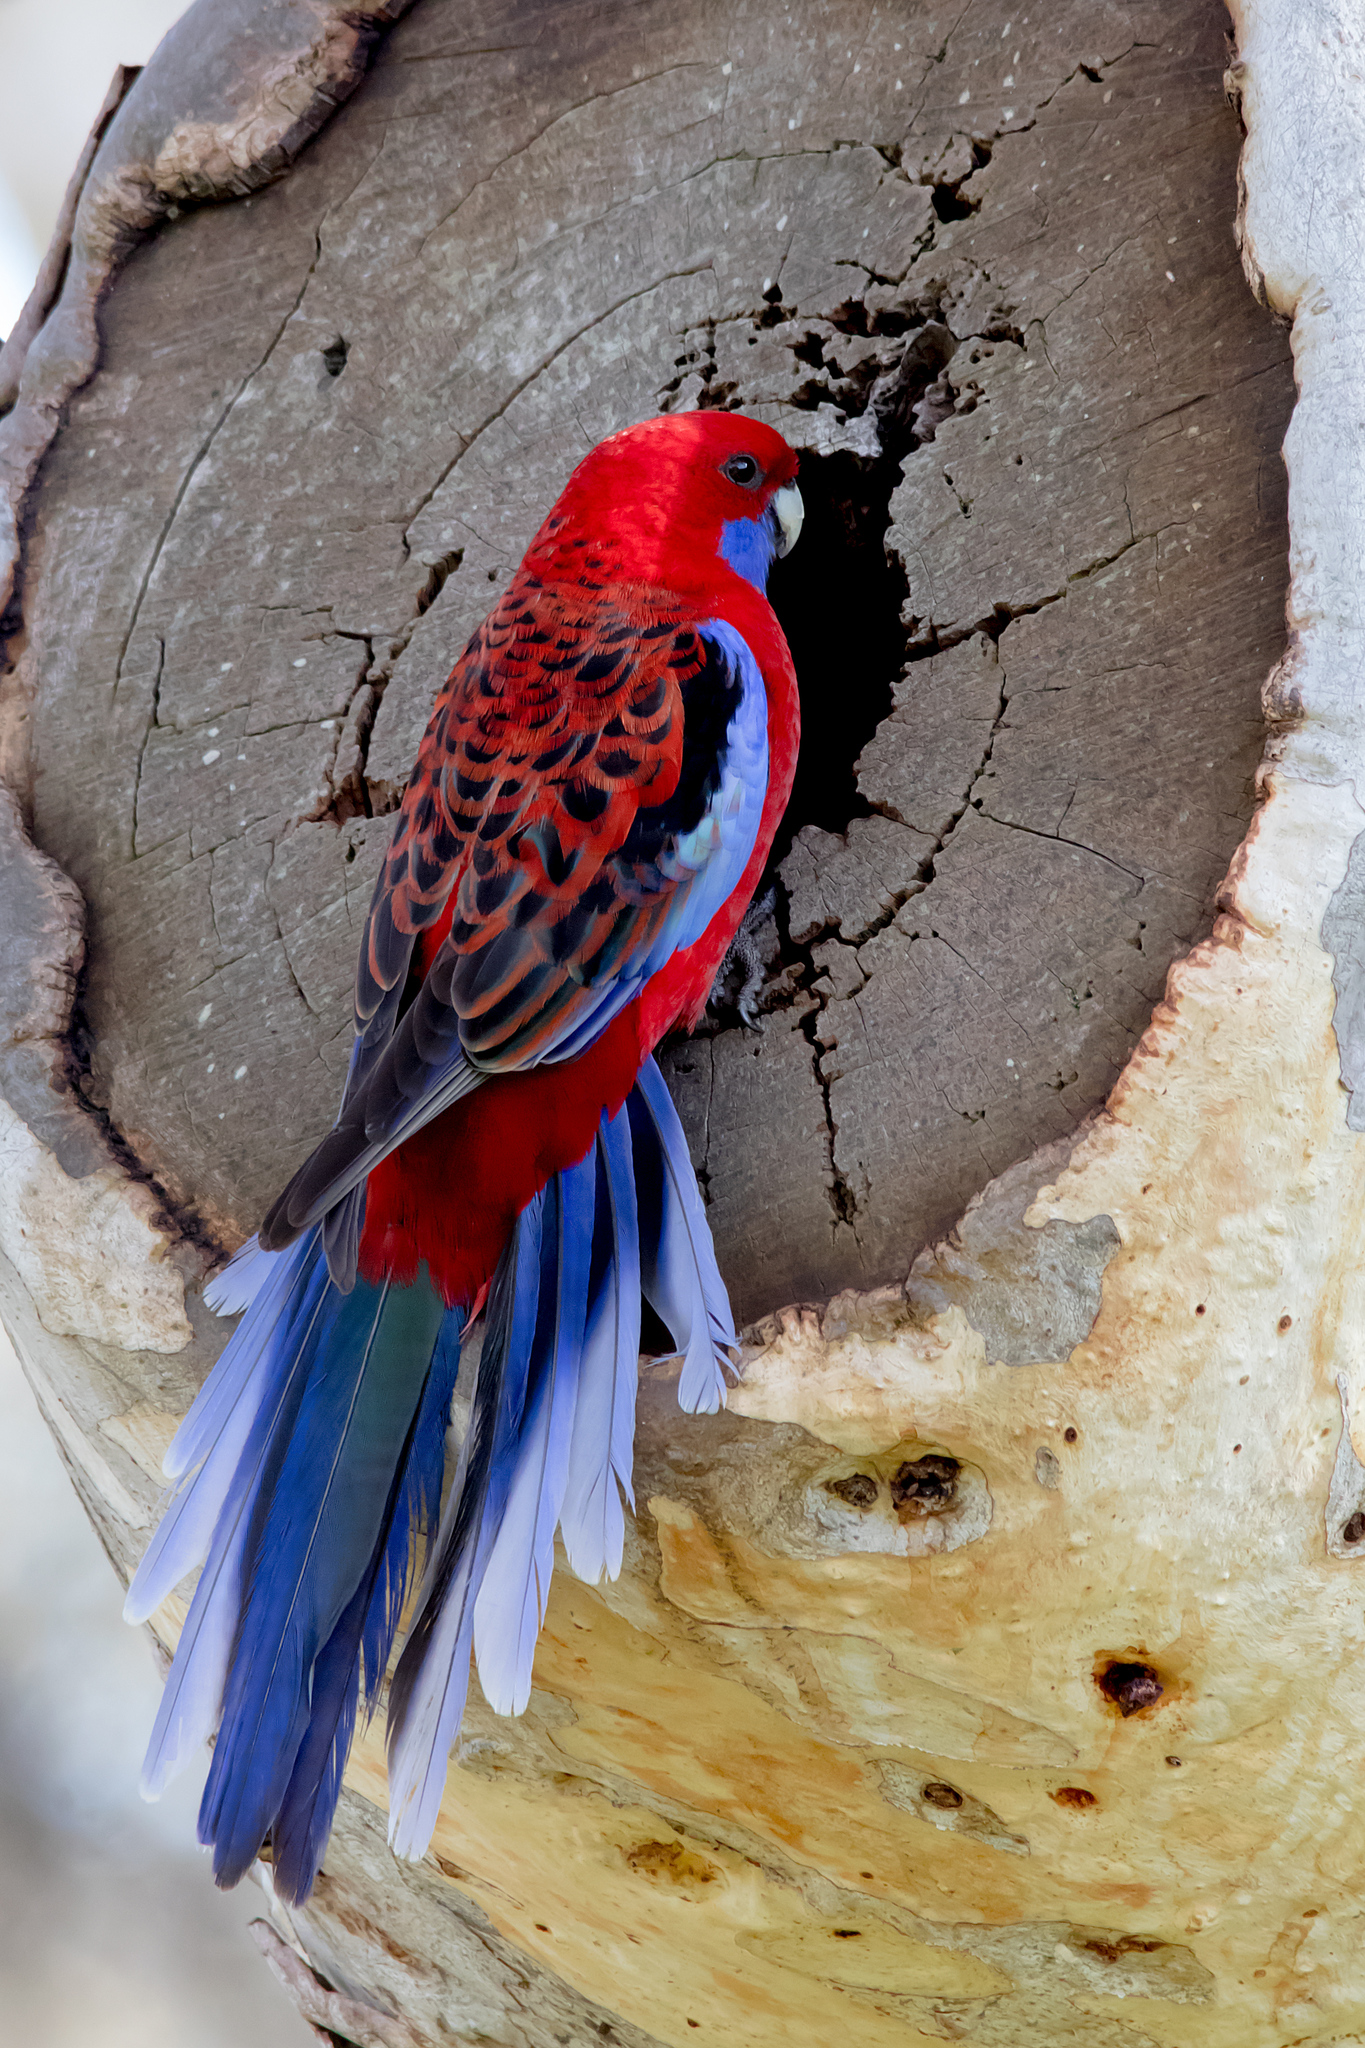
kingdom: Animalia
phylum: Chordata
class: Aves
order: Psittaciformes
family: Psittacidae
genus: Platycercus
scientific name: Platycercus elegans
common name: Crimson rosella
